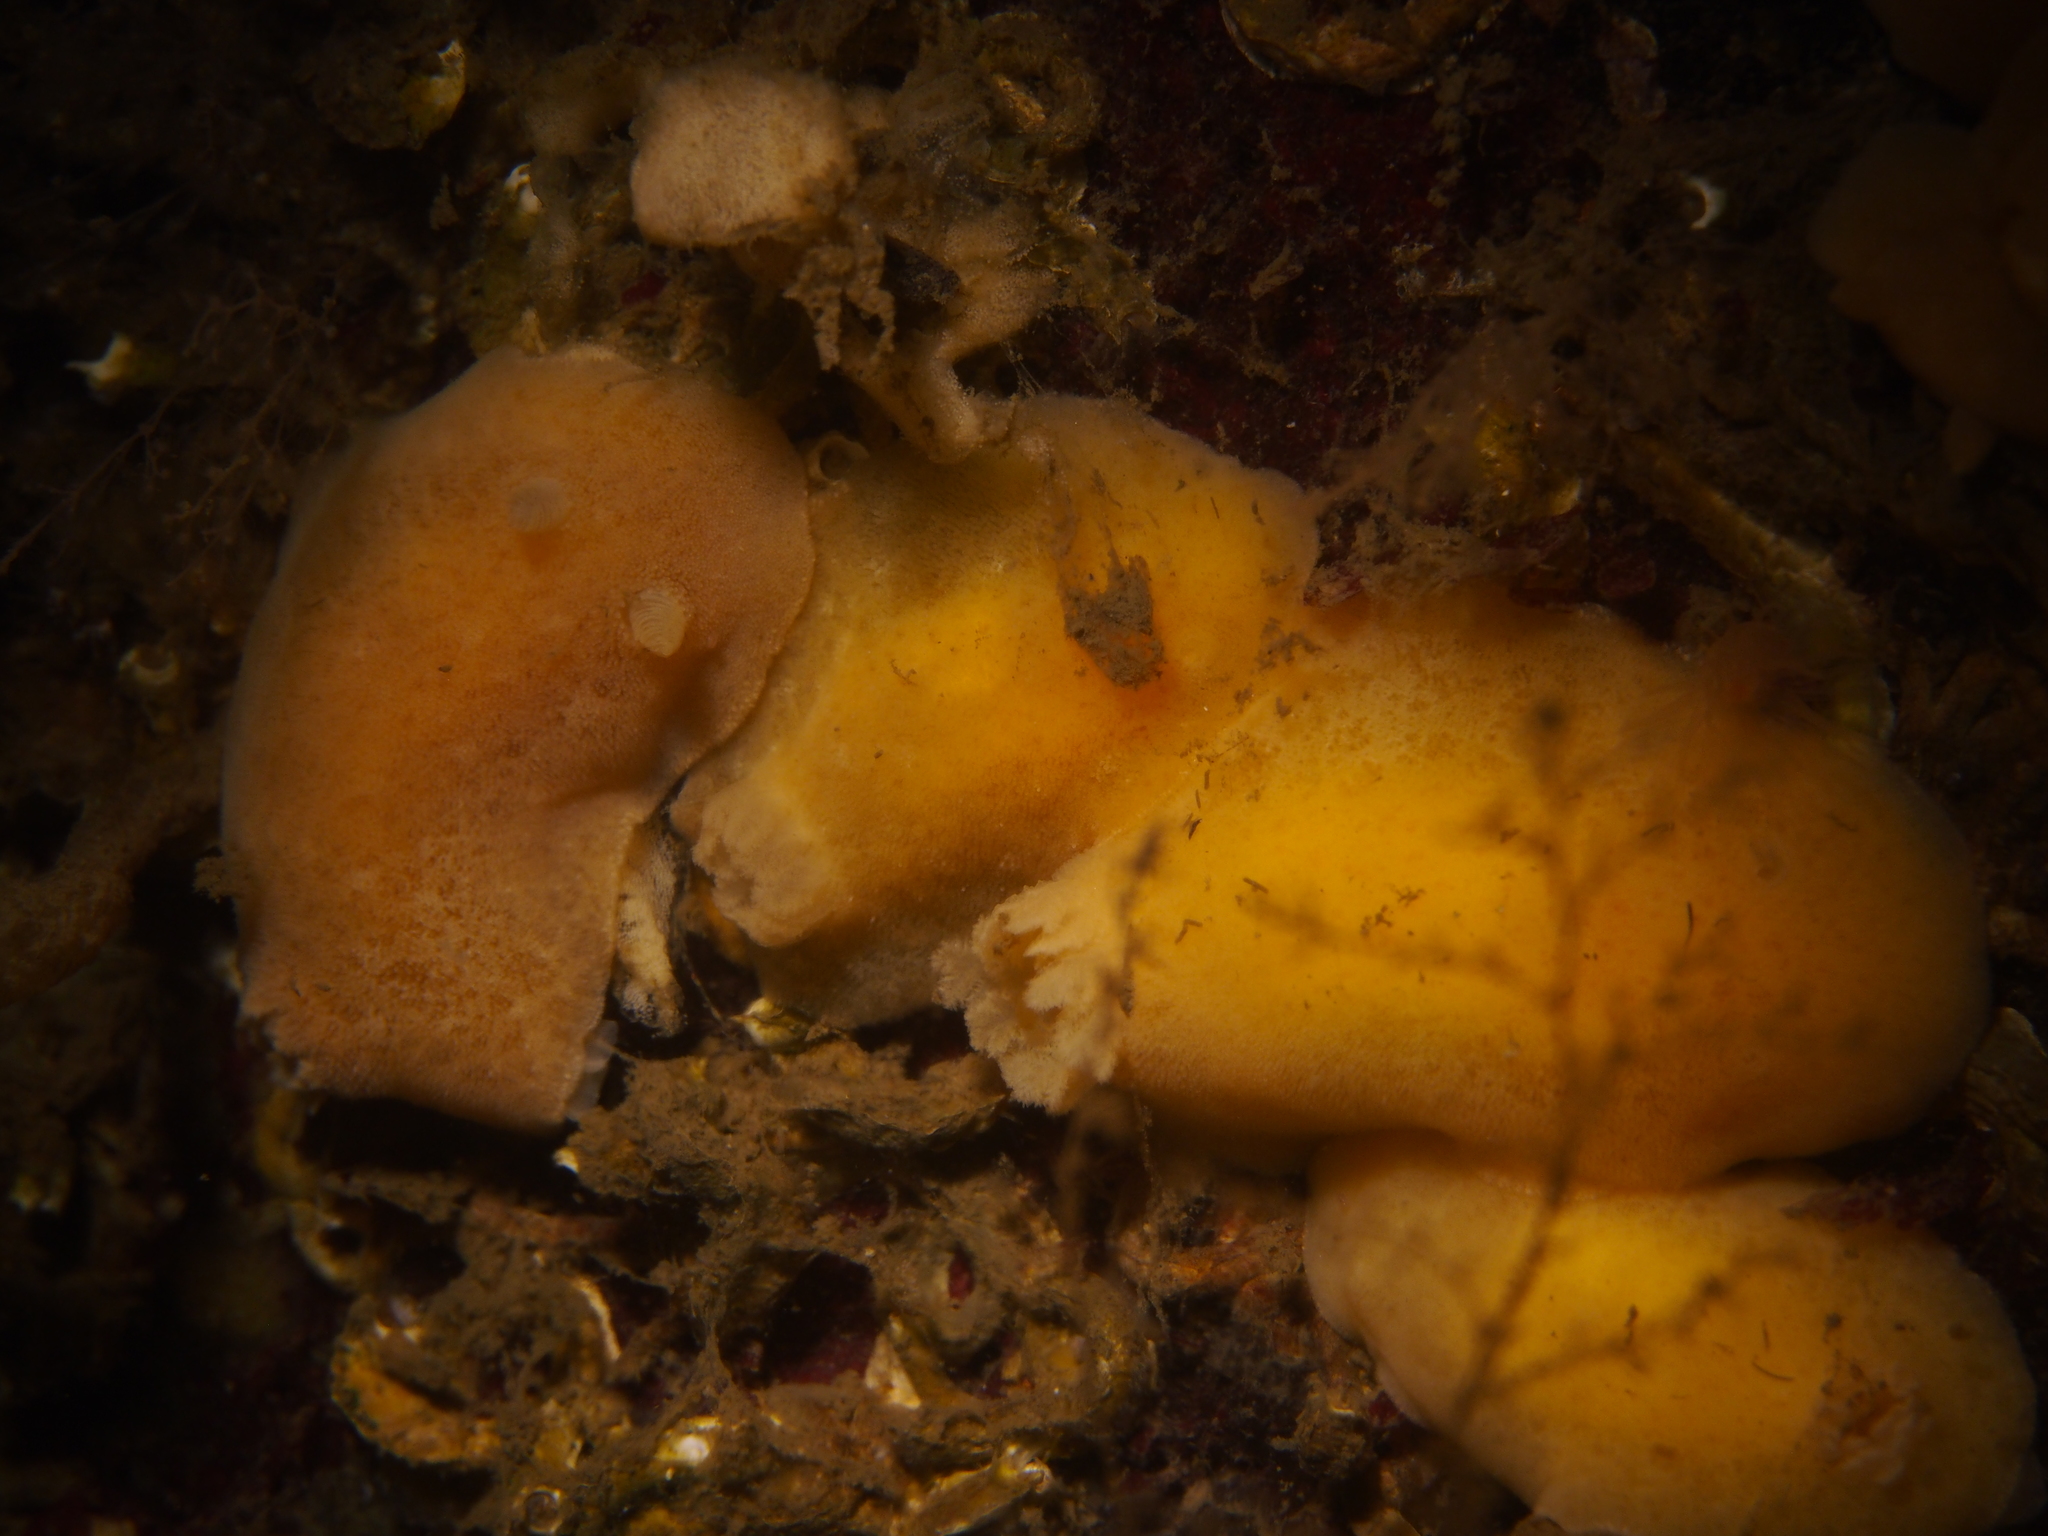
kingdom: Animalia
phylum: Mollusca
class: Gastropoda
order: Nudibranchia
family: Discodorididae
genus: Jorunna
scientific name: Jorunna tomentosa
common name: Grey sea slug
